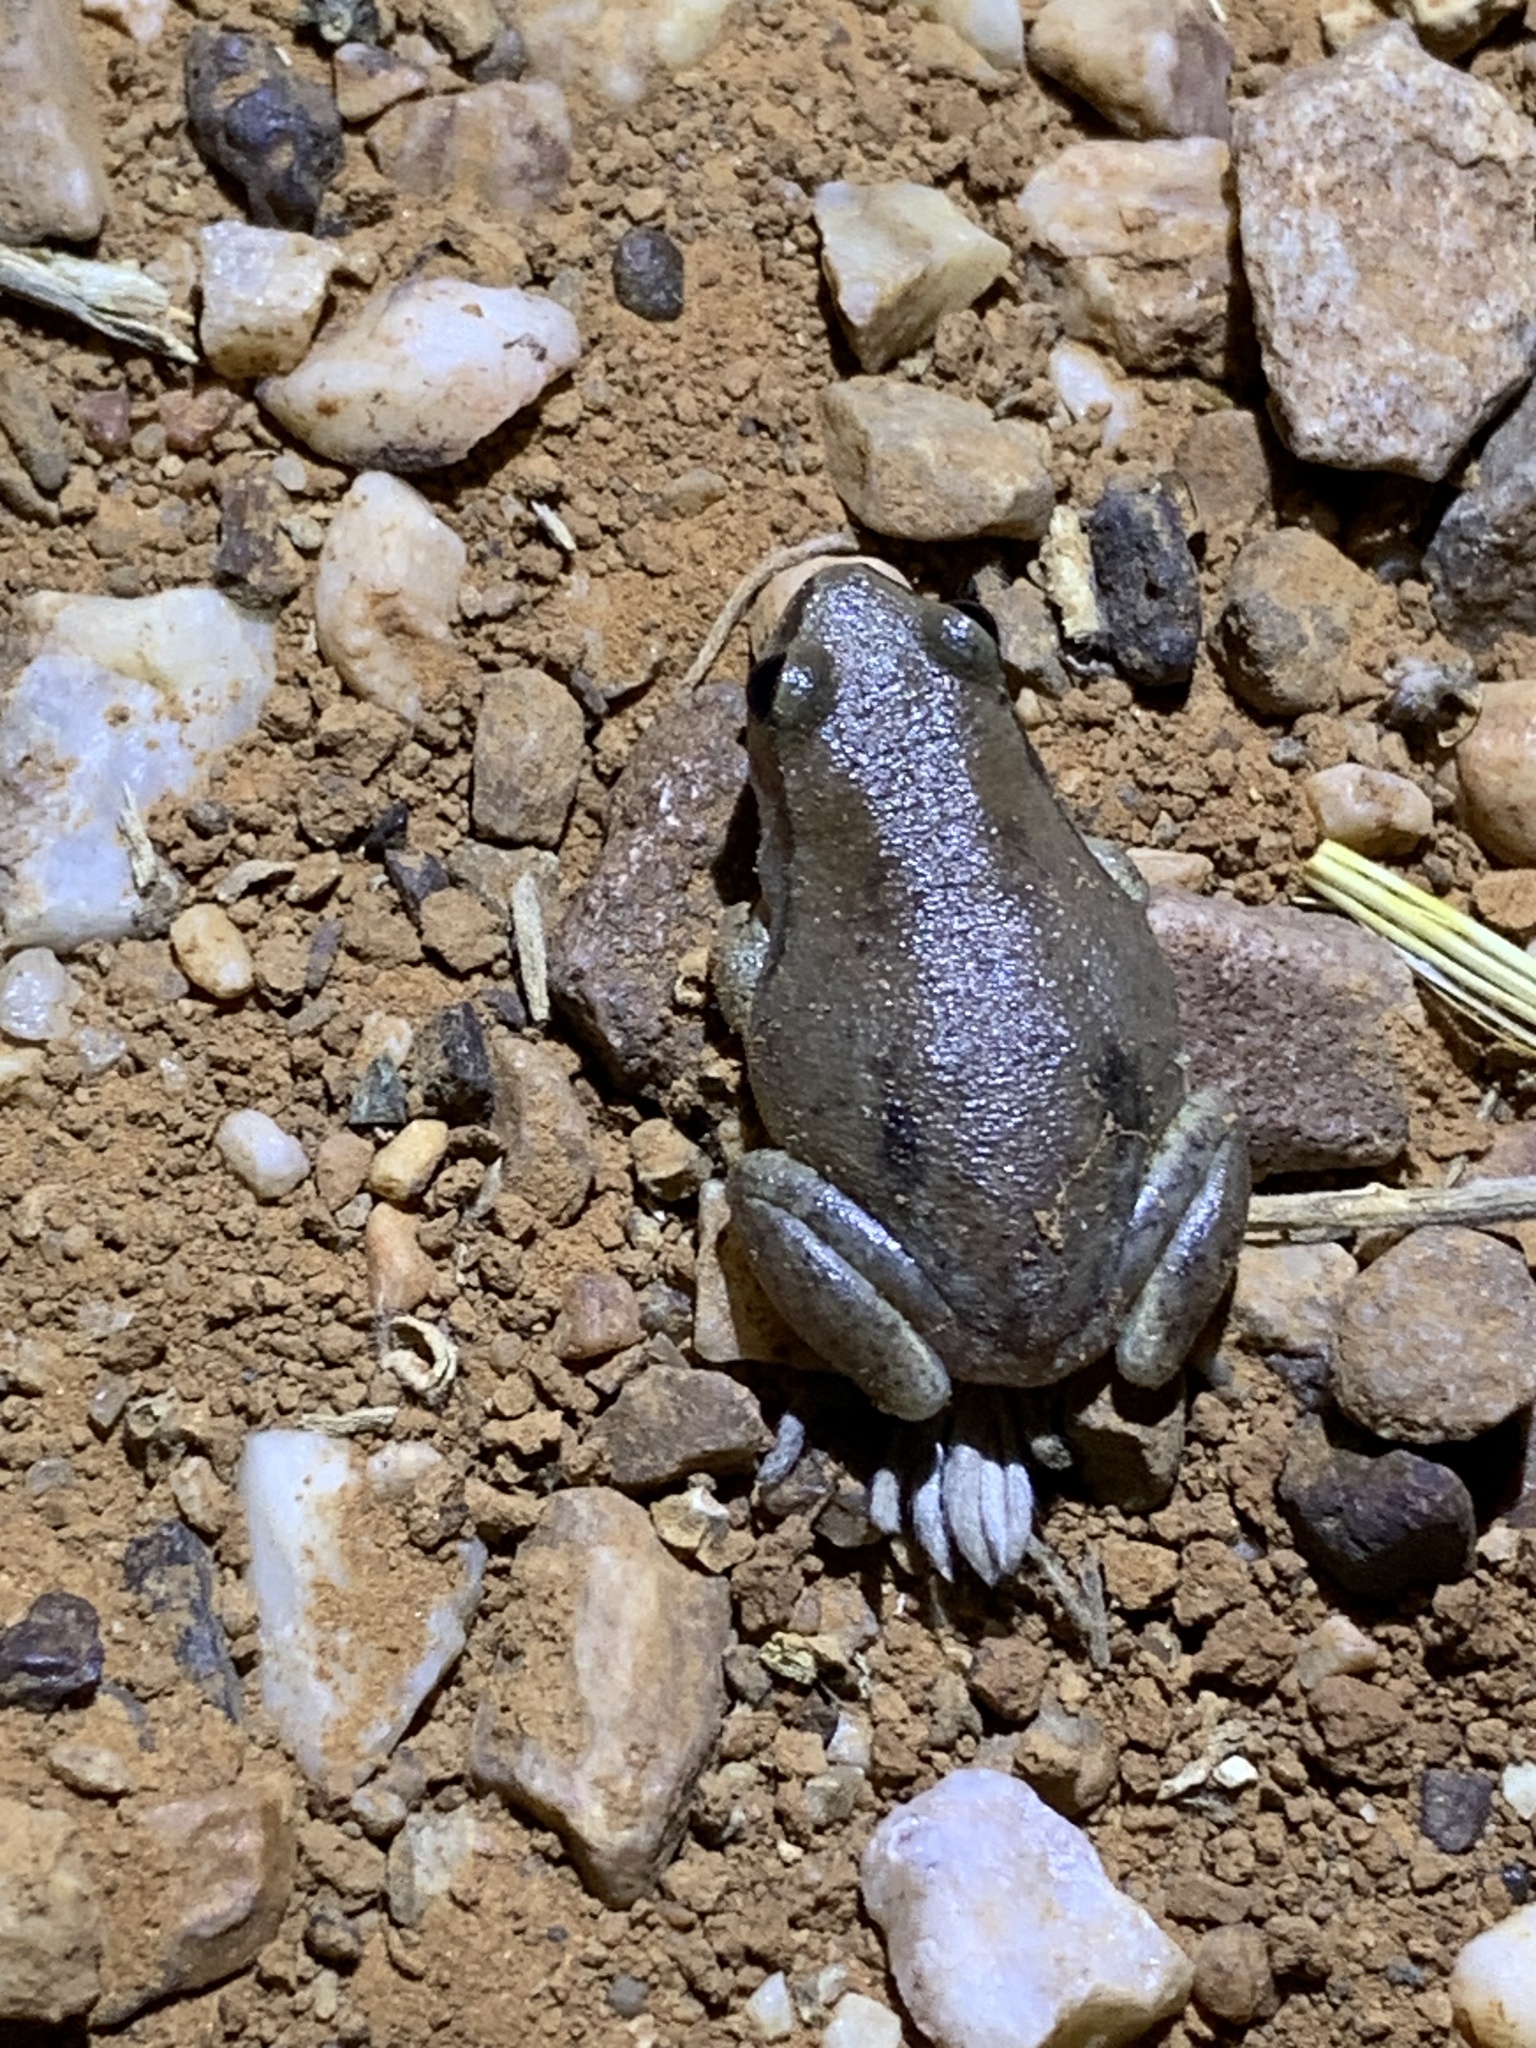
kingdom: Animalia
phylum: Chordata
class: Amphibia
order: Anura
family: Pelodryadidae
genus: Litoria
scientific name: Litoria rubella
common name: Desert tree frog
